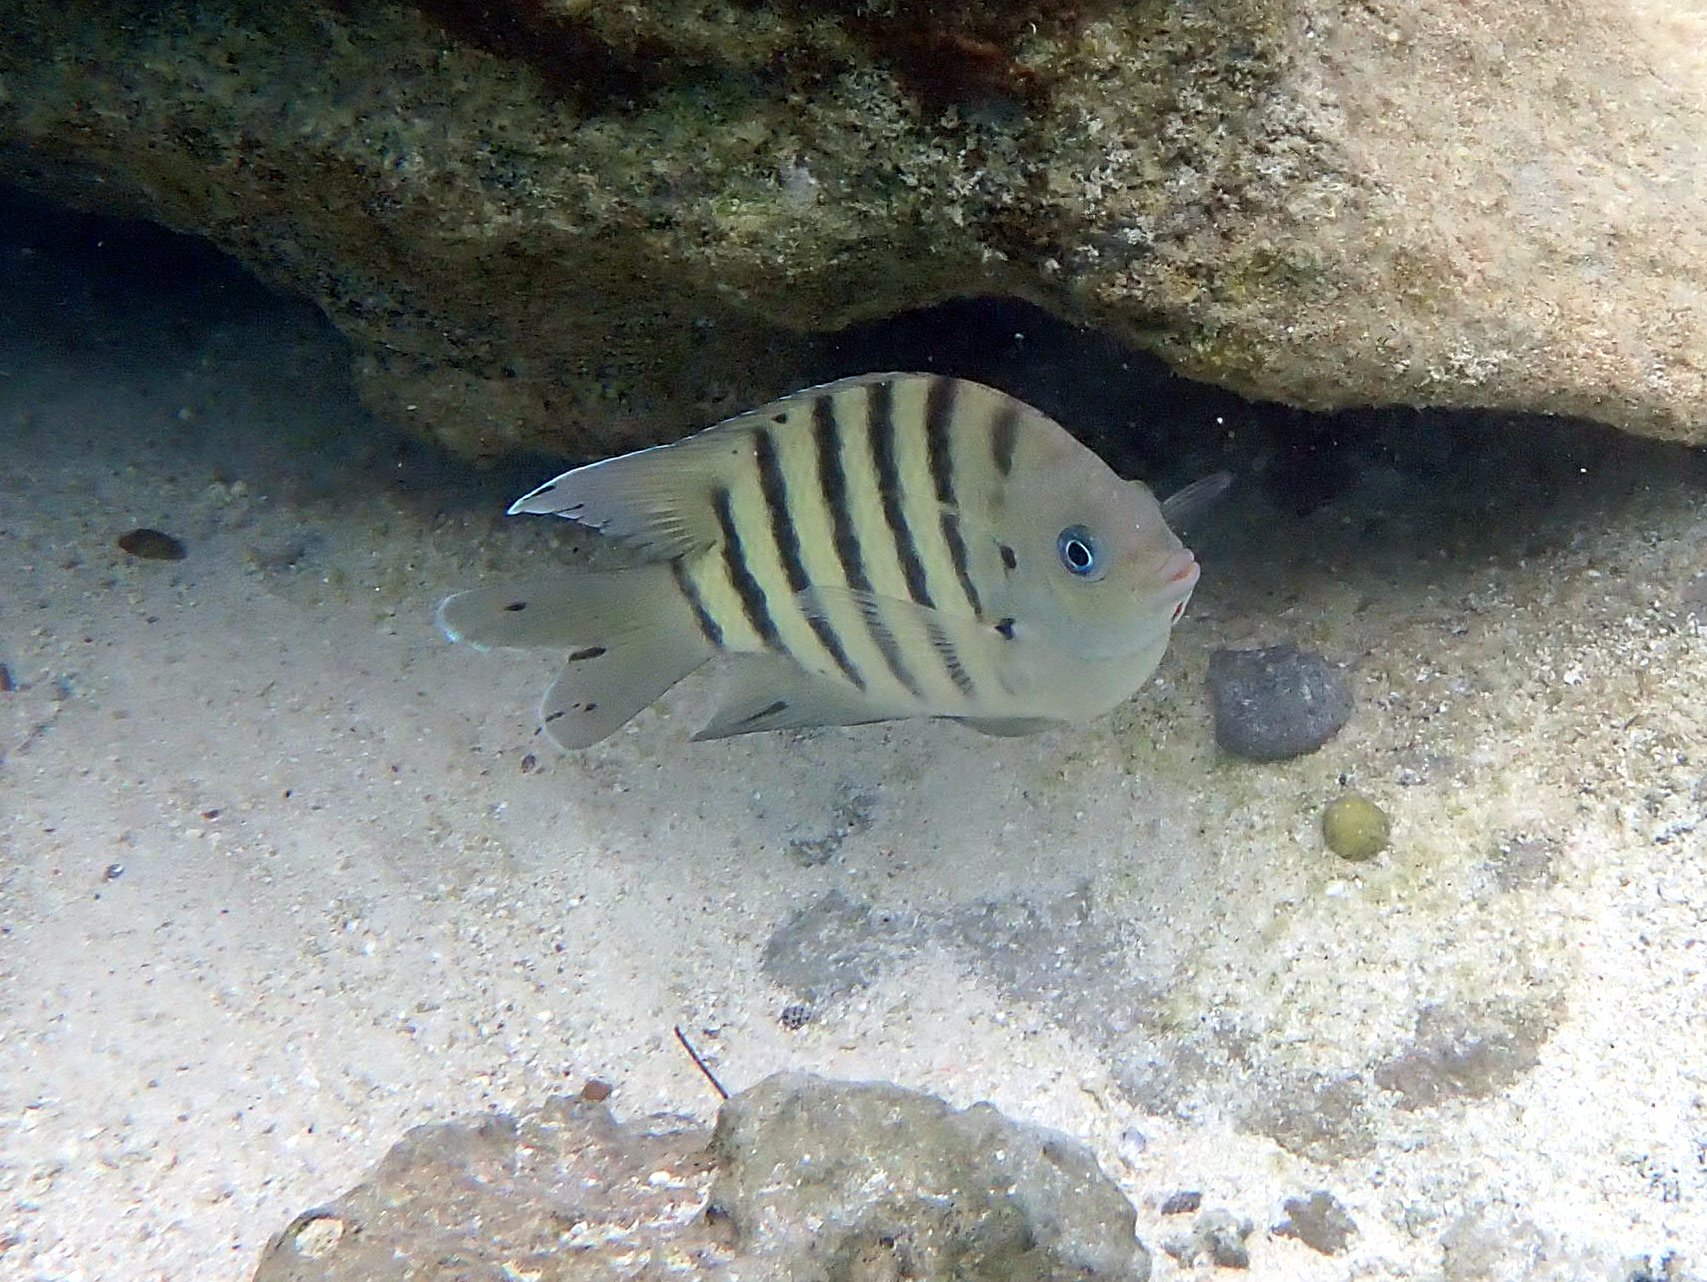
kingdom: Animalia
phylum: Chordata
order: Perciformes
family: Pomacentridae
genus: Abudefduf
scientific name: Abudefduf bengalensis
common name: Bengal sergeant
